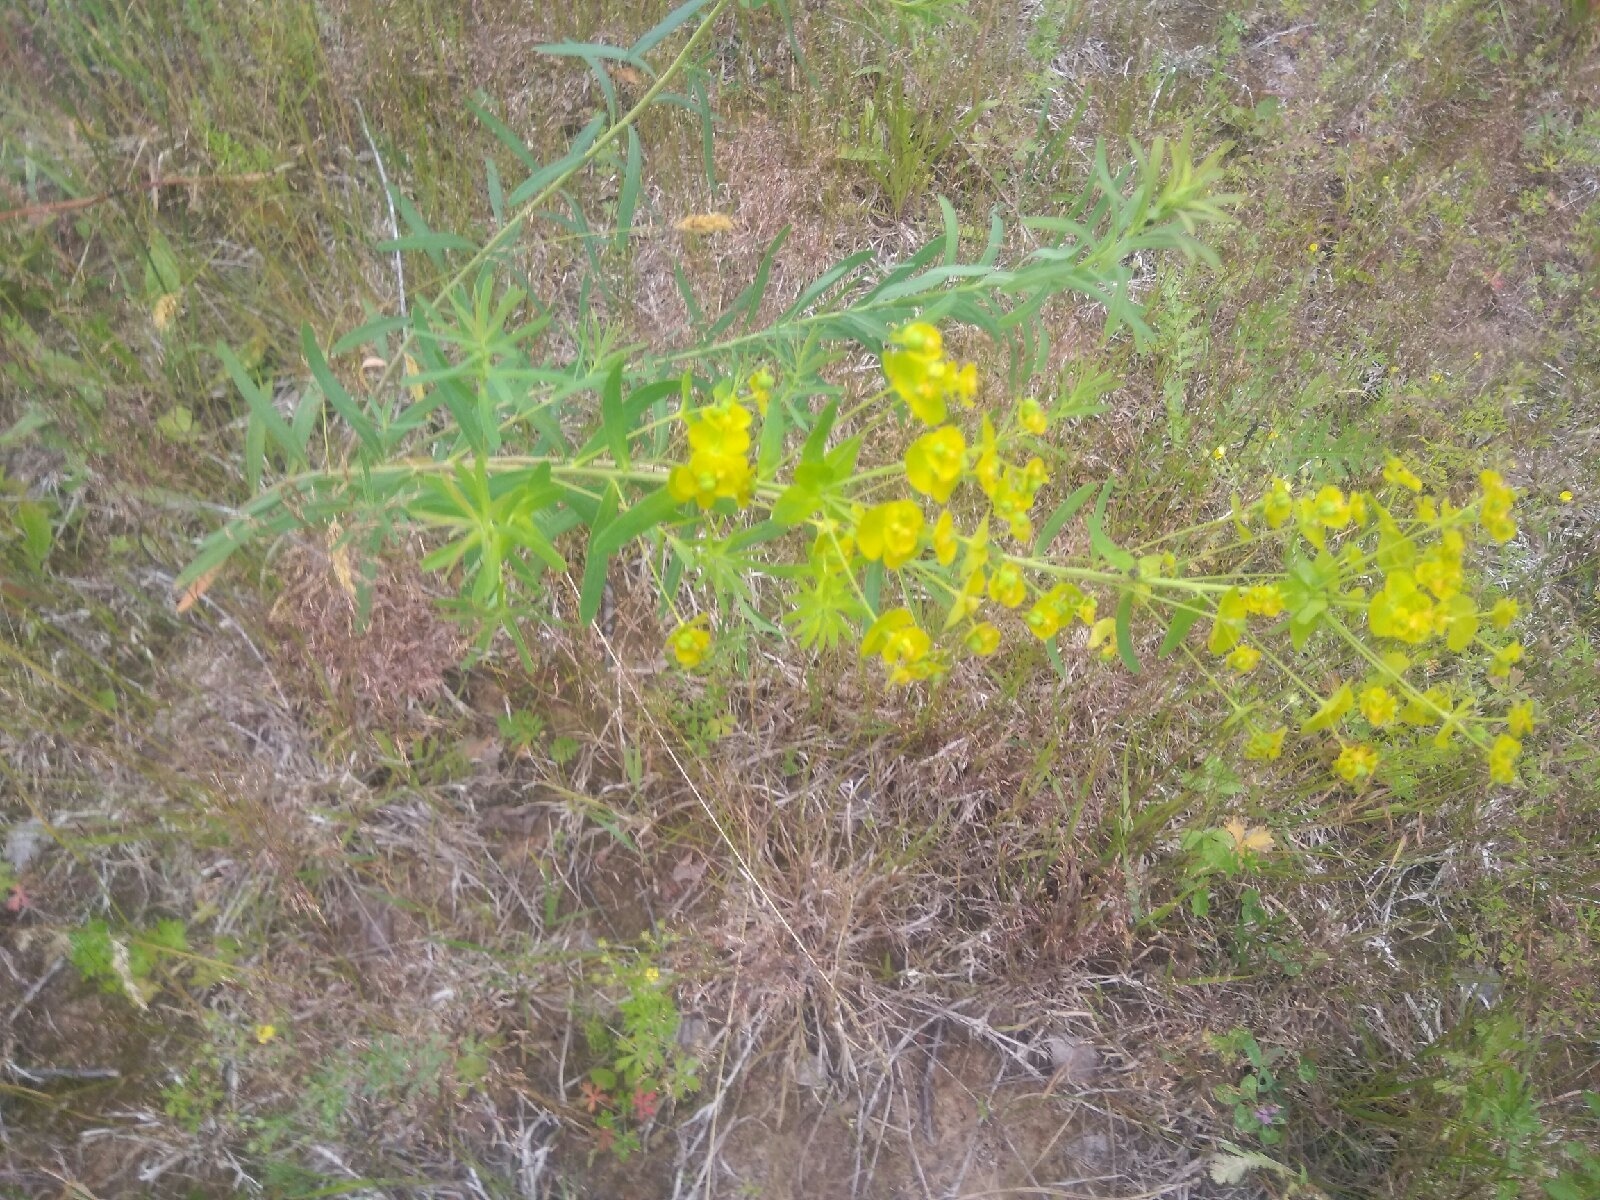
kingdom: Plantae
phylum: Tracheophyta
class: Magnoliopsida
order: Malpighiales
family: Euphorbiaceae
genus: Euphorbia
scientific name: Euphorbia virgata
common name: Leafy spurge
